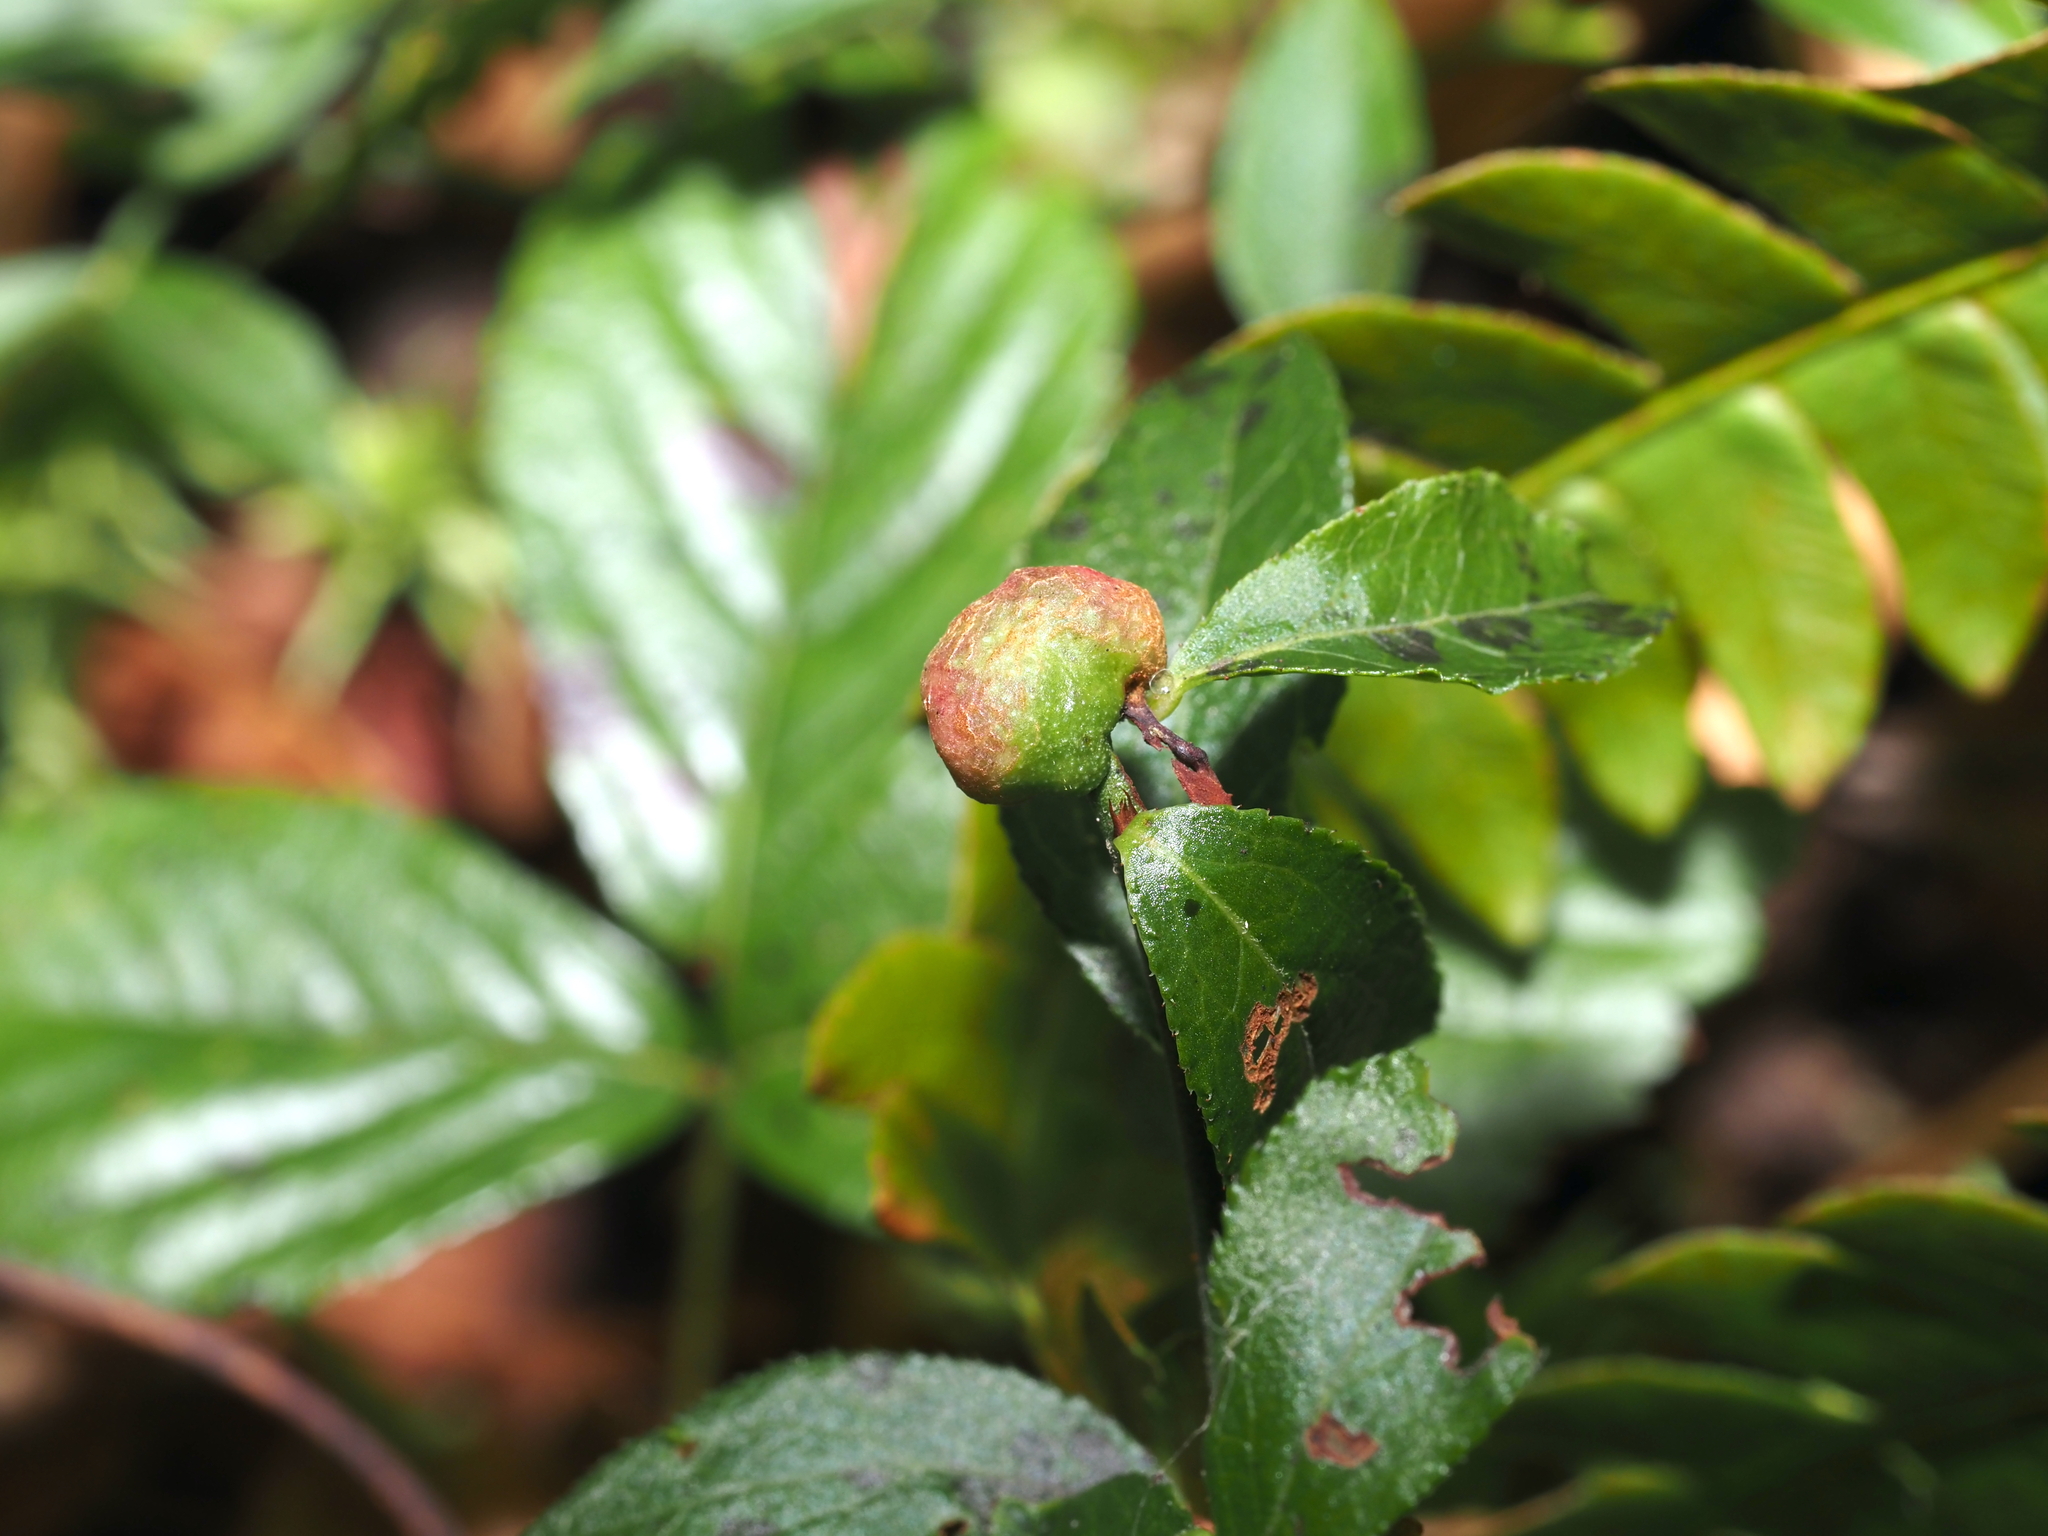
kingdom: Animalia
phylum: Arthropoda
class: Insecta
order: Hymenoptera
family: Pteromalidae
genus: Hemadas
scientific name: Hemadas nubilipennis
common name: Blueberry stem gall wasp
